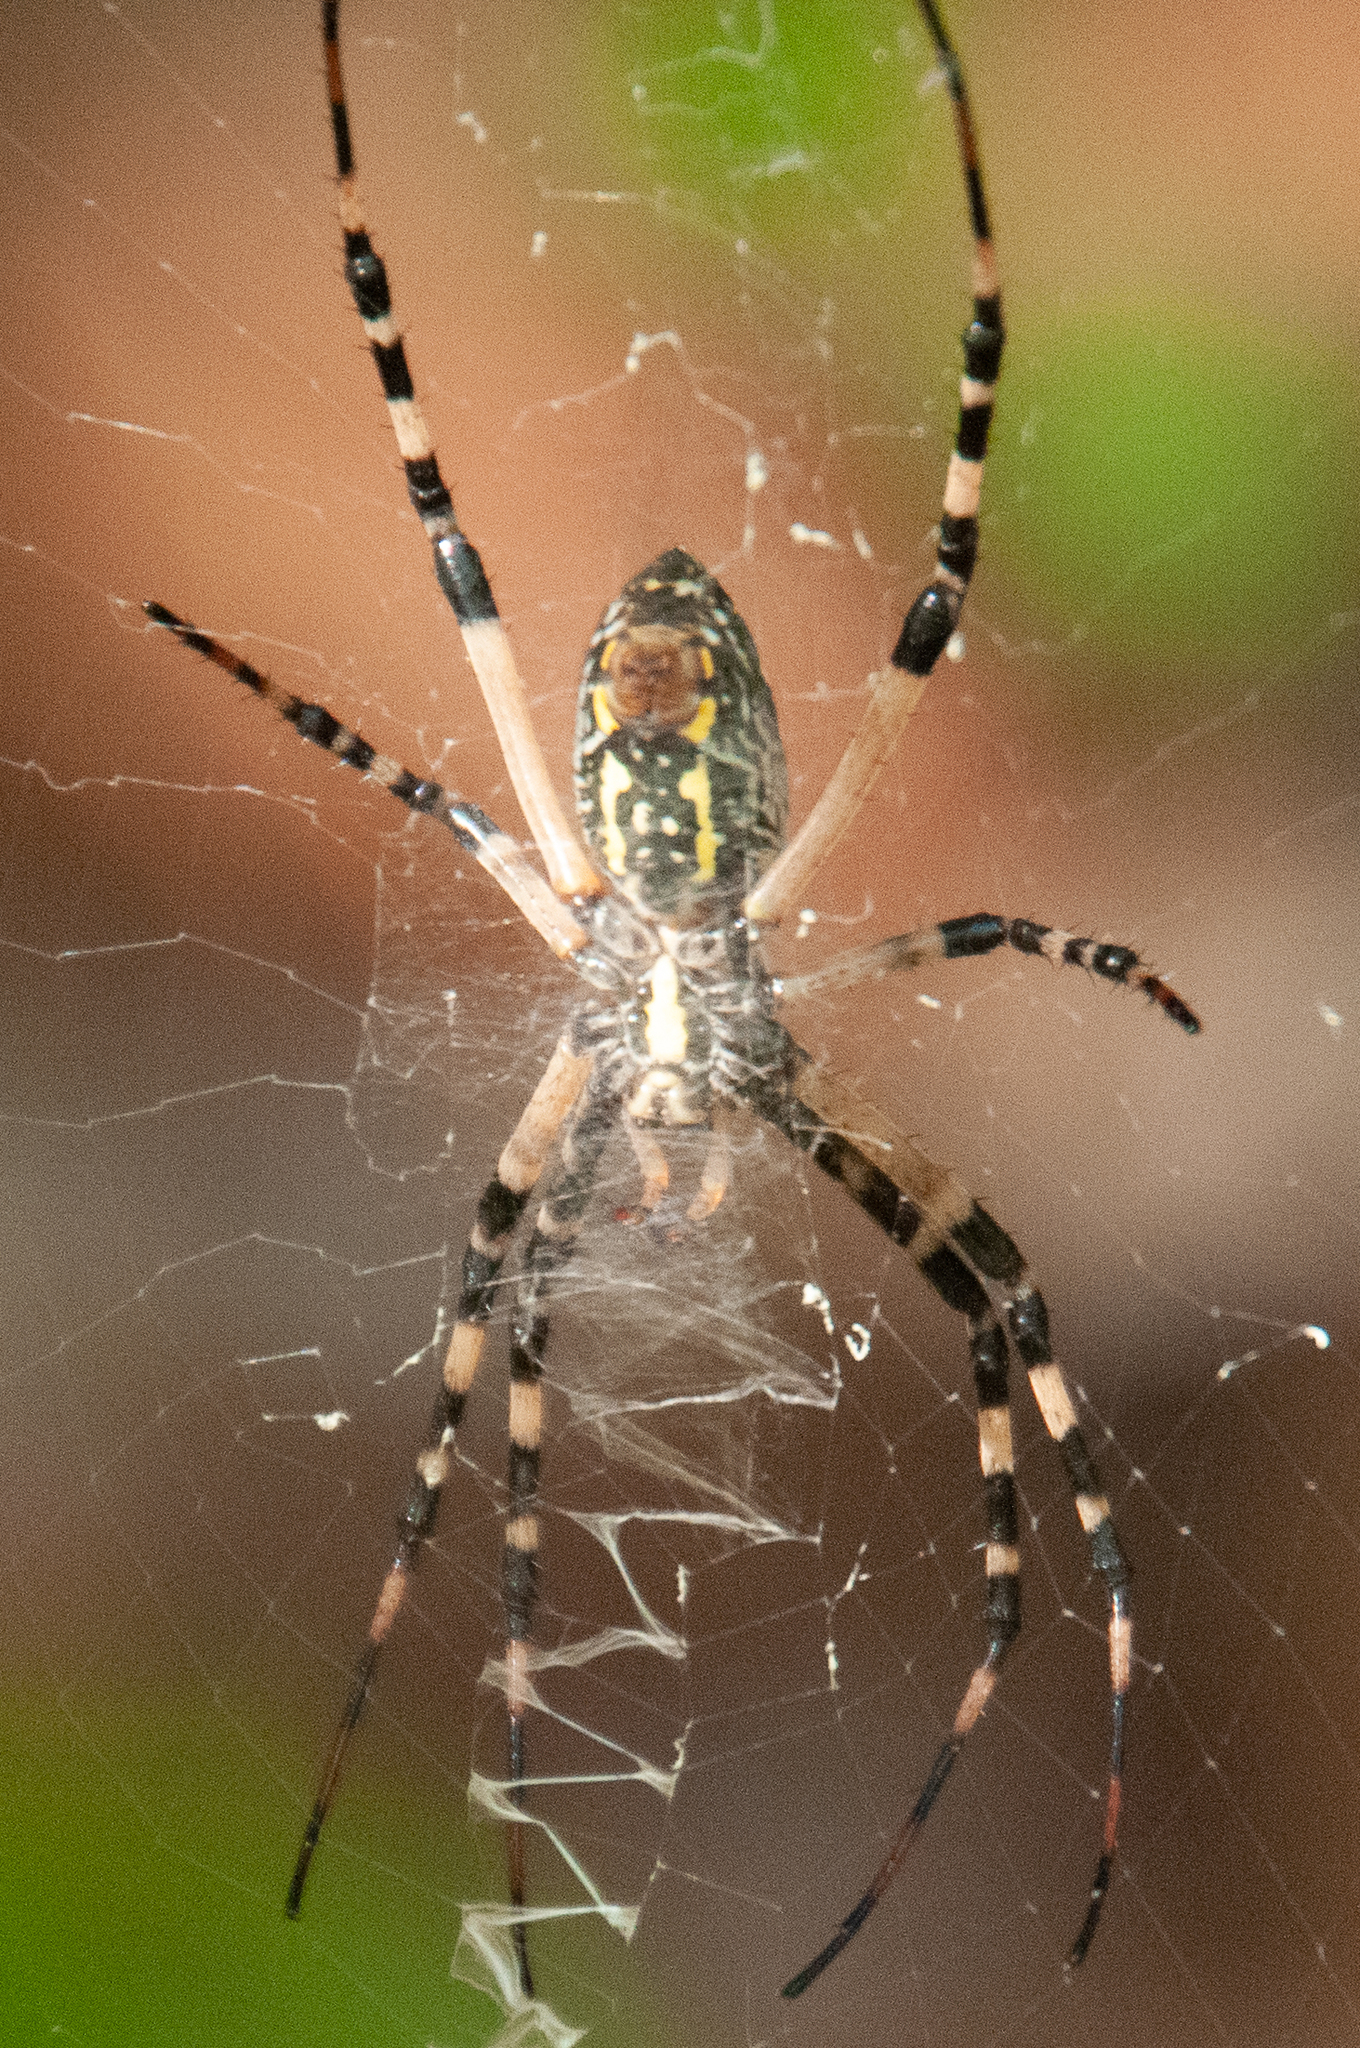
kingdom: Animalia
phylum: Arthropoda
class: Arachnida
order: Araneae
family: Araneidae
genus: Argiope
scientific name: Argiope aurantia
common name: Orb weavers
